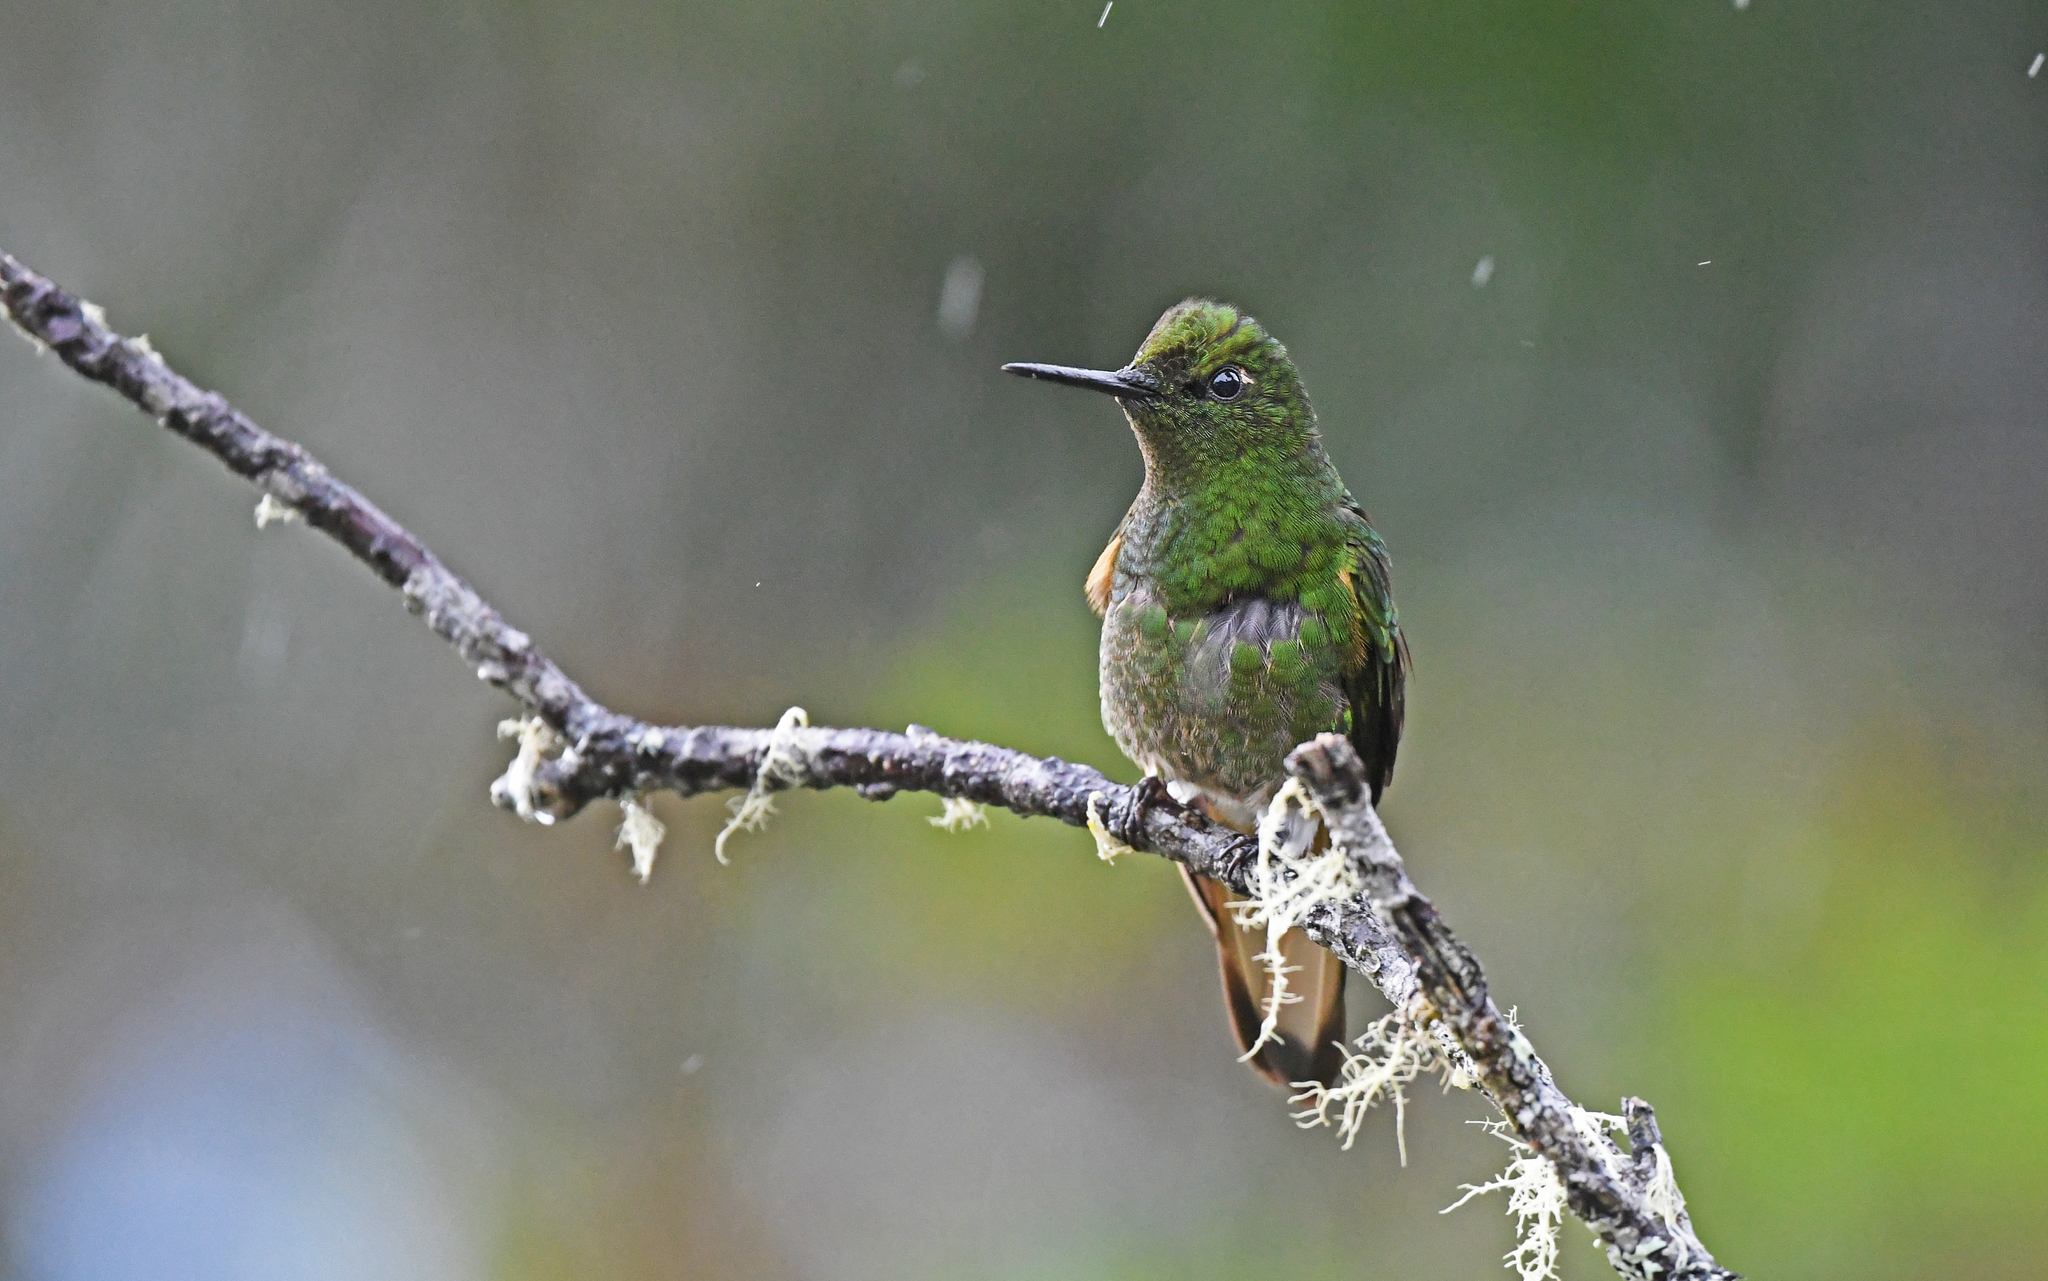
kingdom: Animalia
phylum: Chordata
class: Aves
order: Apodiformes
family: Trochilidae
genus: Boissonneaua
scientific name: Boissonneaua flavescens
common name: Buff-tailed coronet
